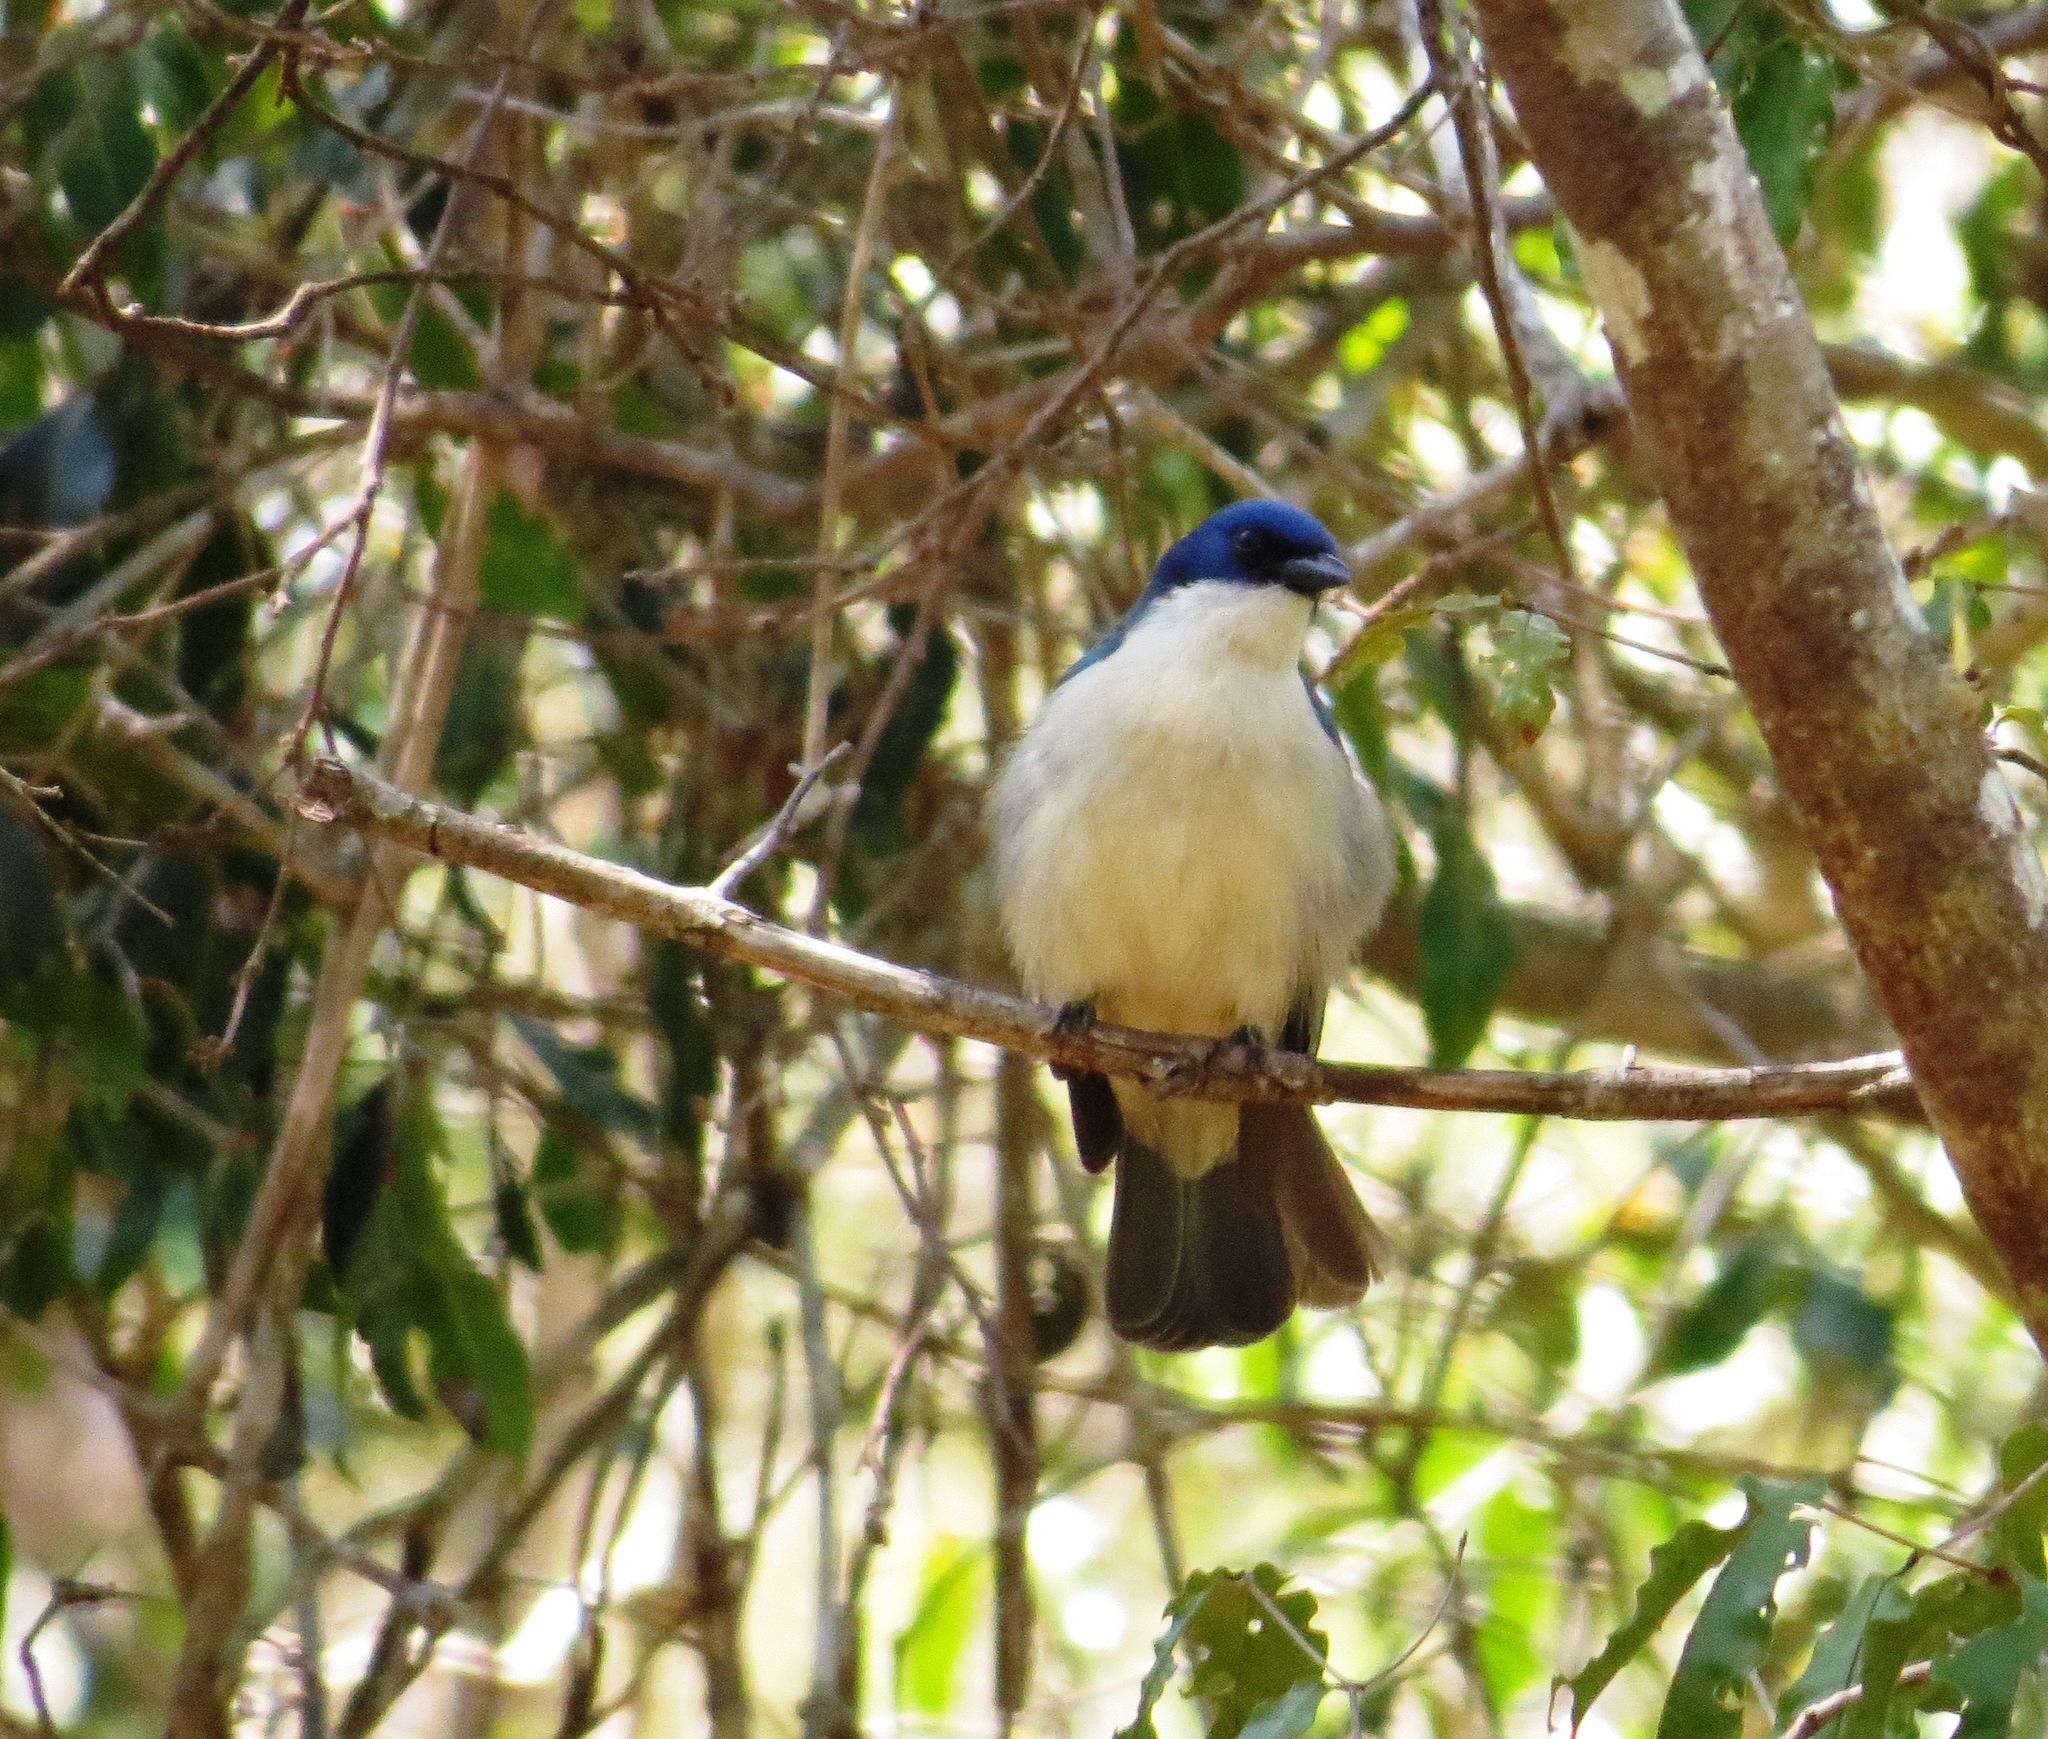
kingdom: Animalia
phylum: Chordata
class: Aves
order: Passeriformes
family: Vangidae
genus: Cyanolanius
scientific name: Cyanolanius madagascarinus
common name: Blue vanga
